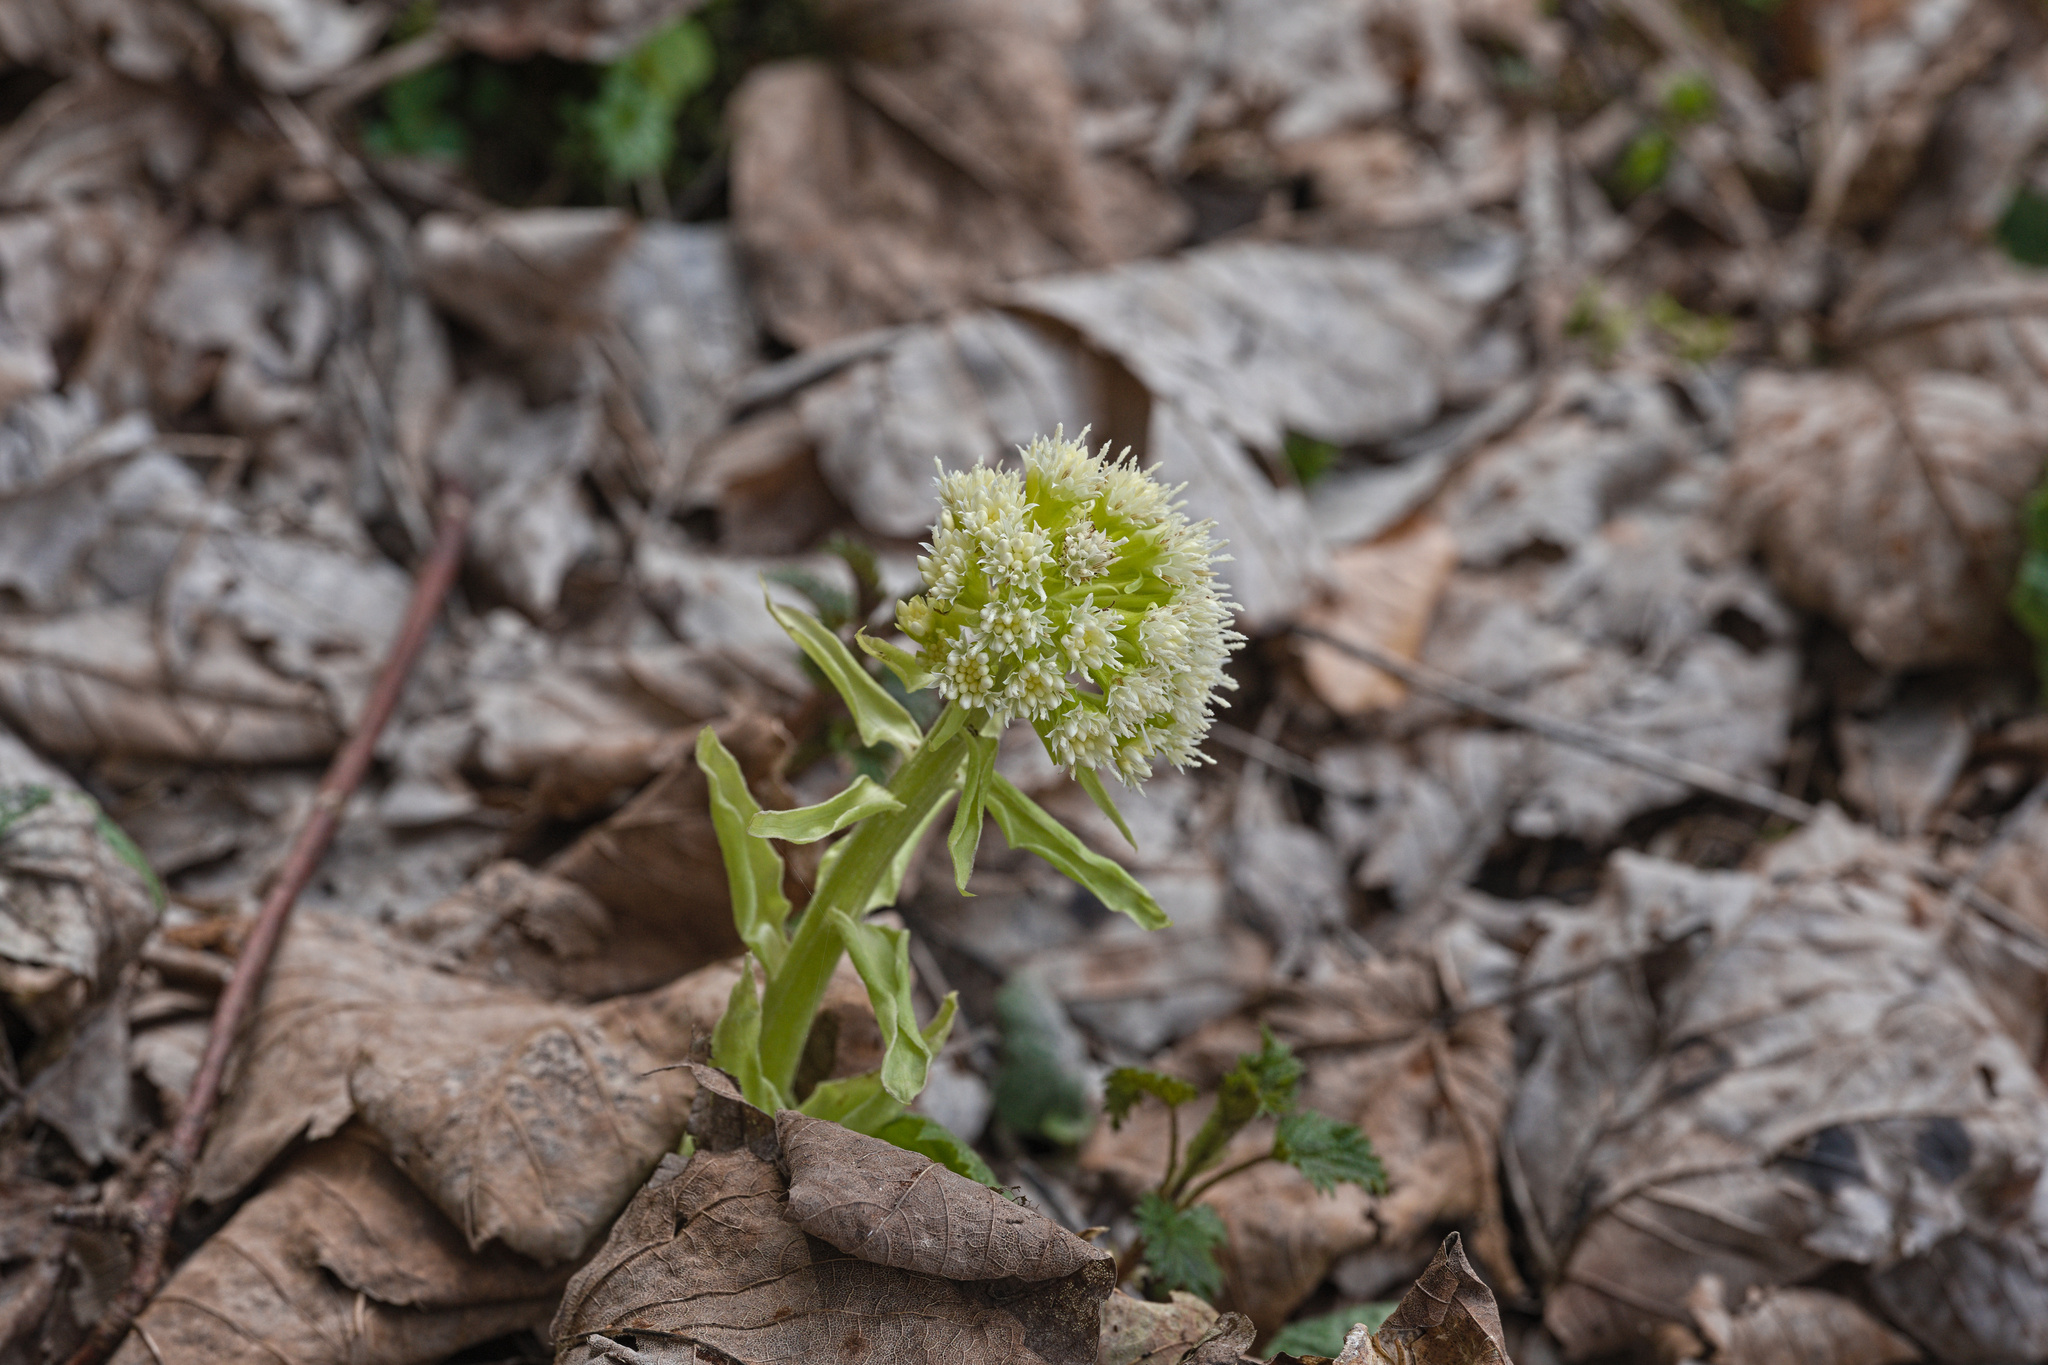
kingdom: Plantae
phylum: Tracheophyta
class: Magnoliopsida
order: Asterales
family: Asteraceae
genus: Petasites
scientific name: Petasites albus
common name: White butterbur
